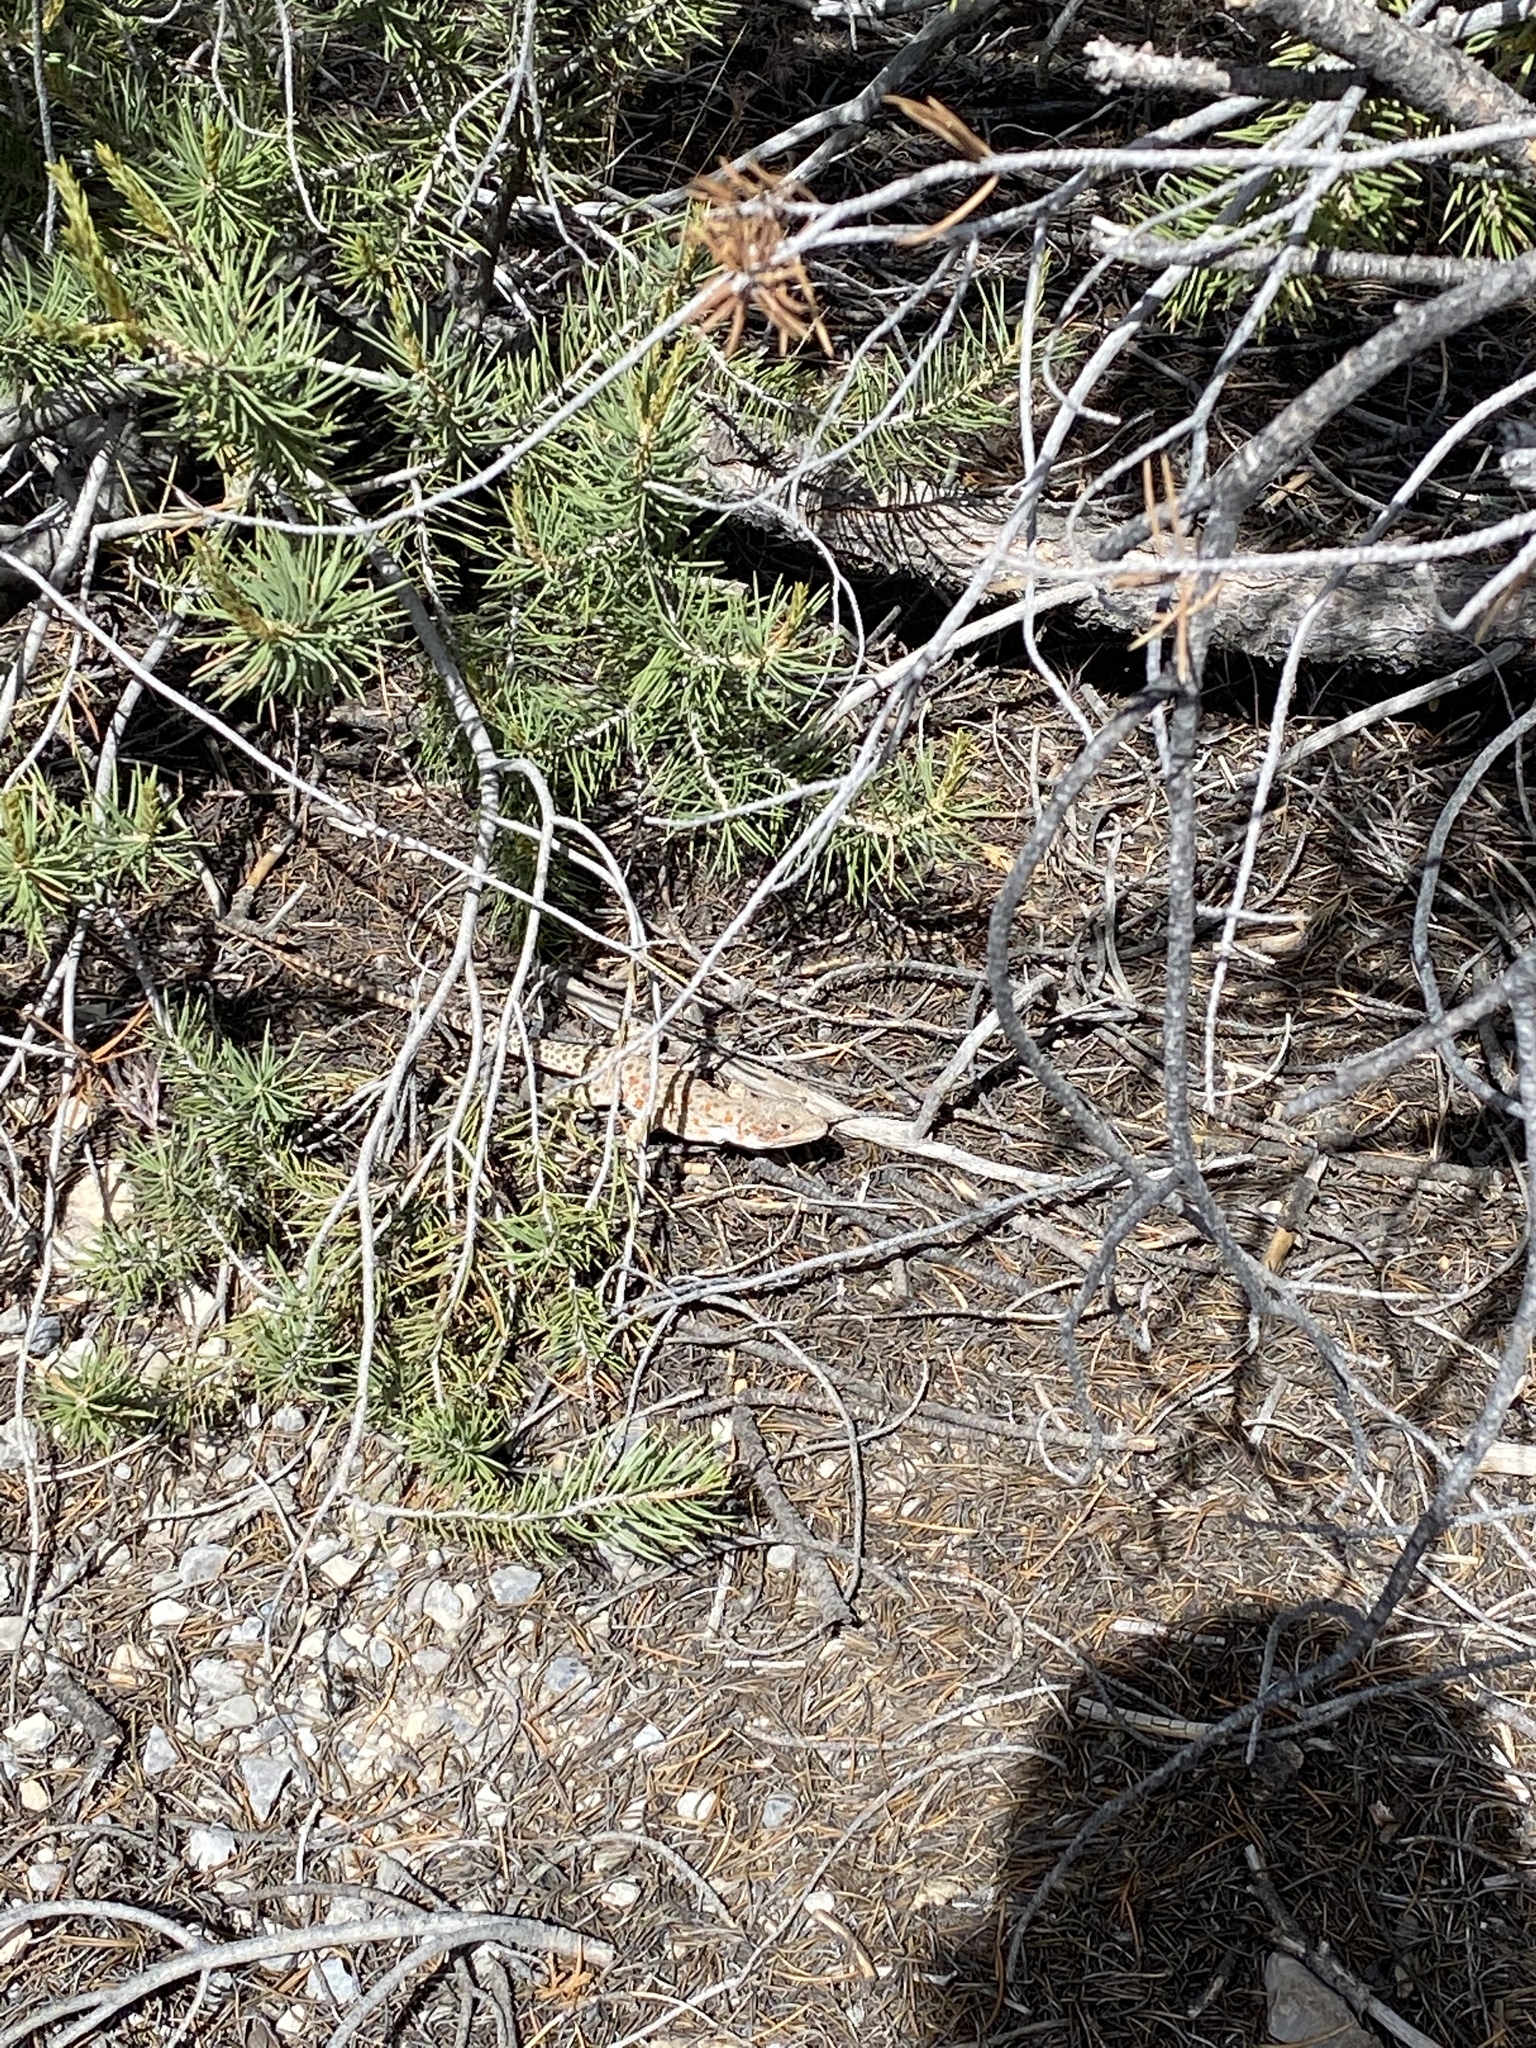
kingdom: Animalia
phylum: Chordata
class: Squamata
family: Crotaphytidae
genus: Gambelia
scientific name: Gambelia wislizenii
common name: Longnose leopard lizard
